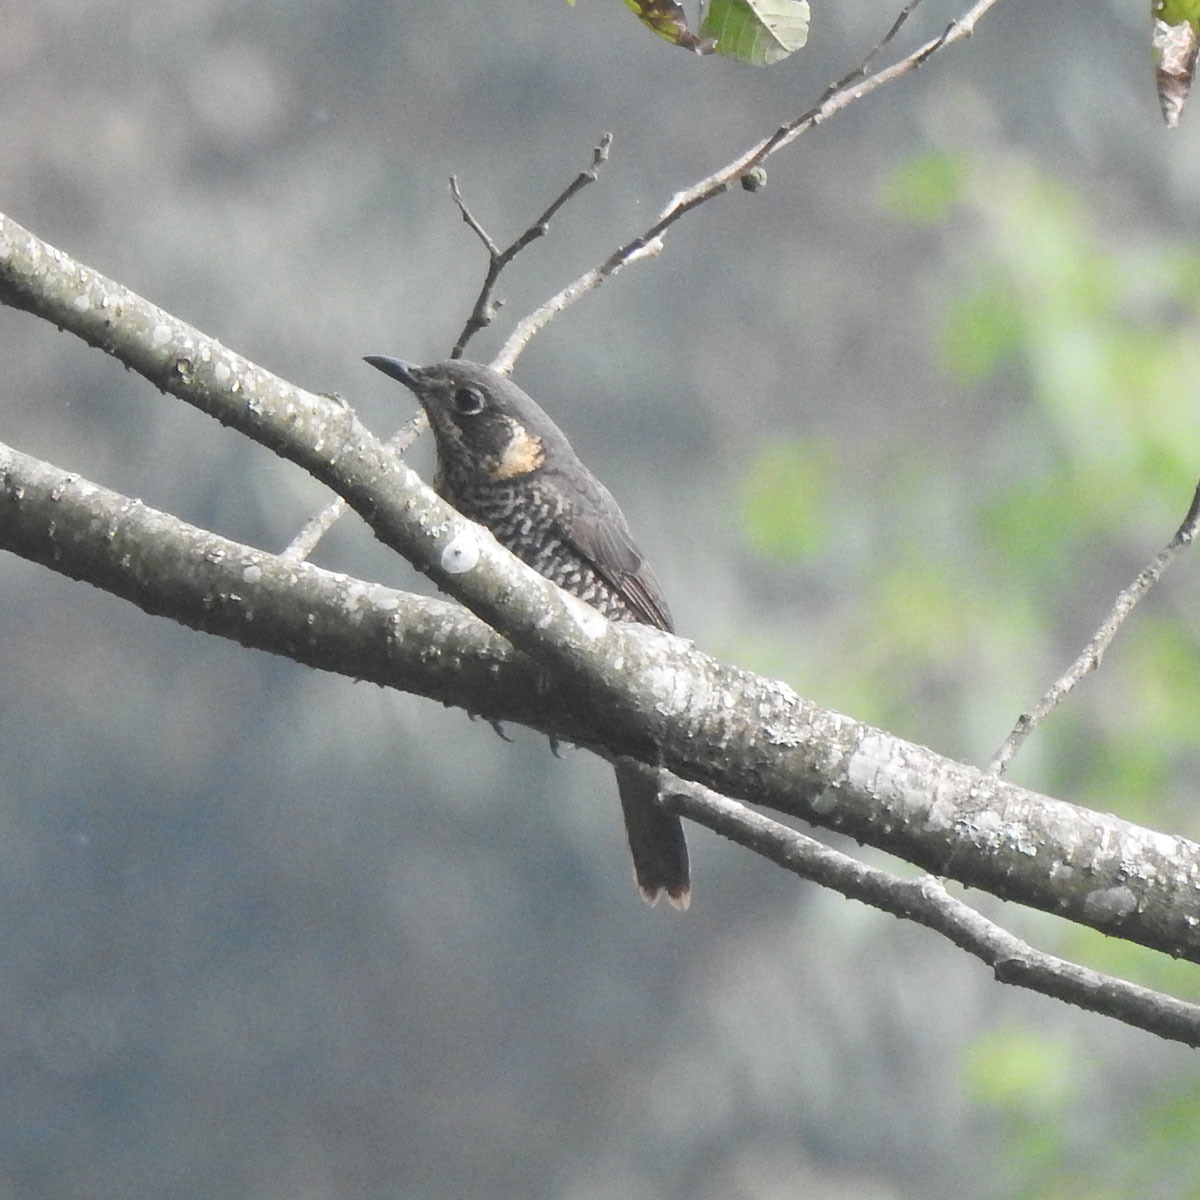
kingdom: Animalia
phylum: Chordata
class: Aves
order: Passeriformes
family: Muscicapidae
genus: Monticola
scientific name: Monticola rufiventris
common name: Chestnut-bellied rock thrush
